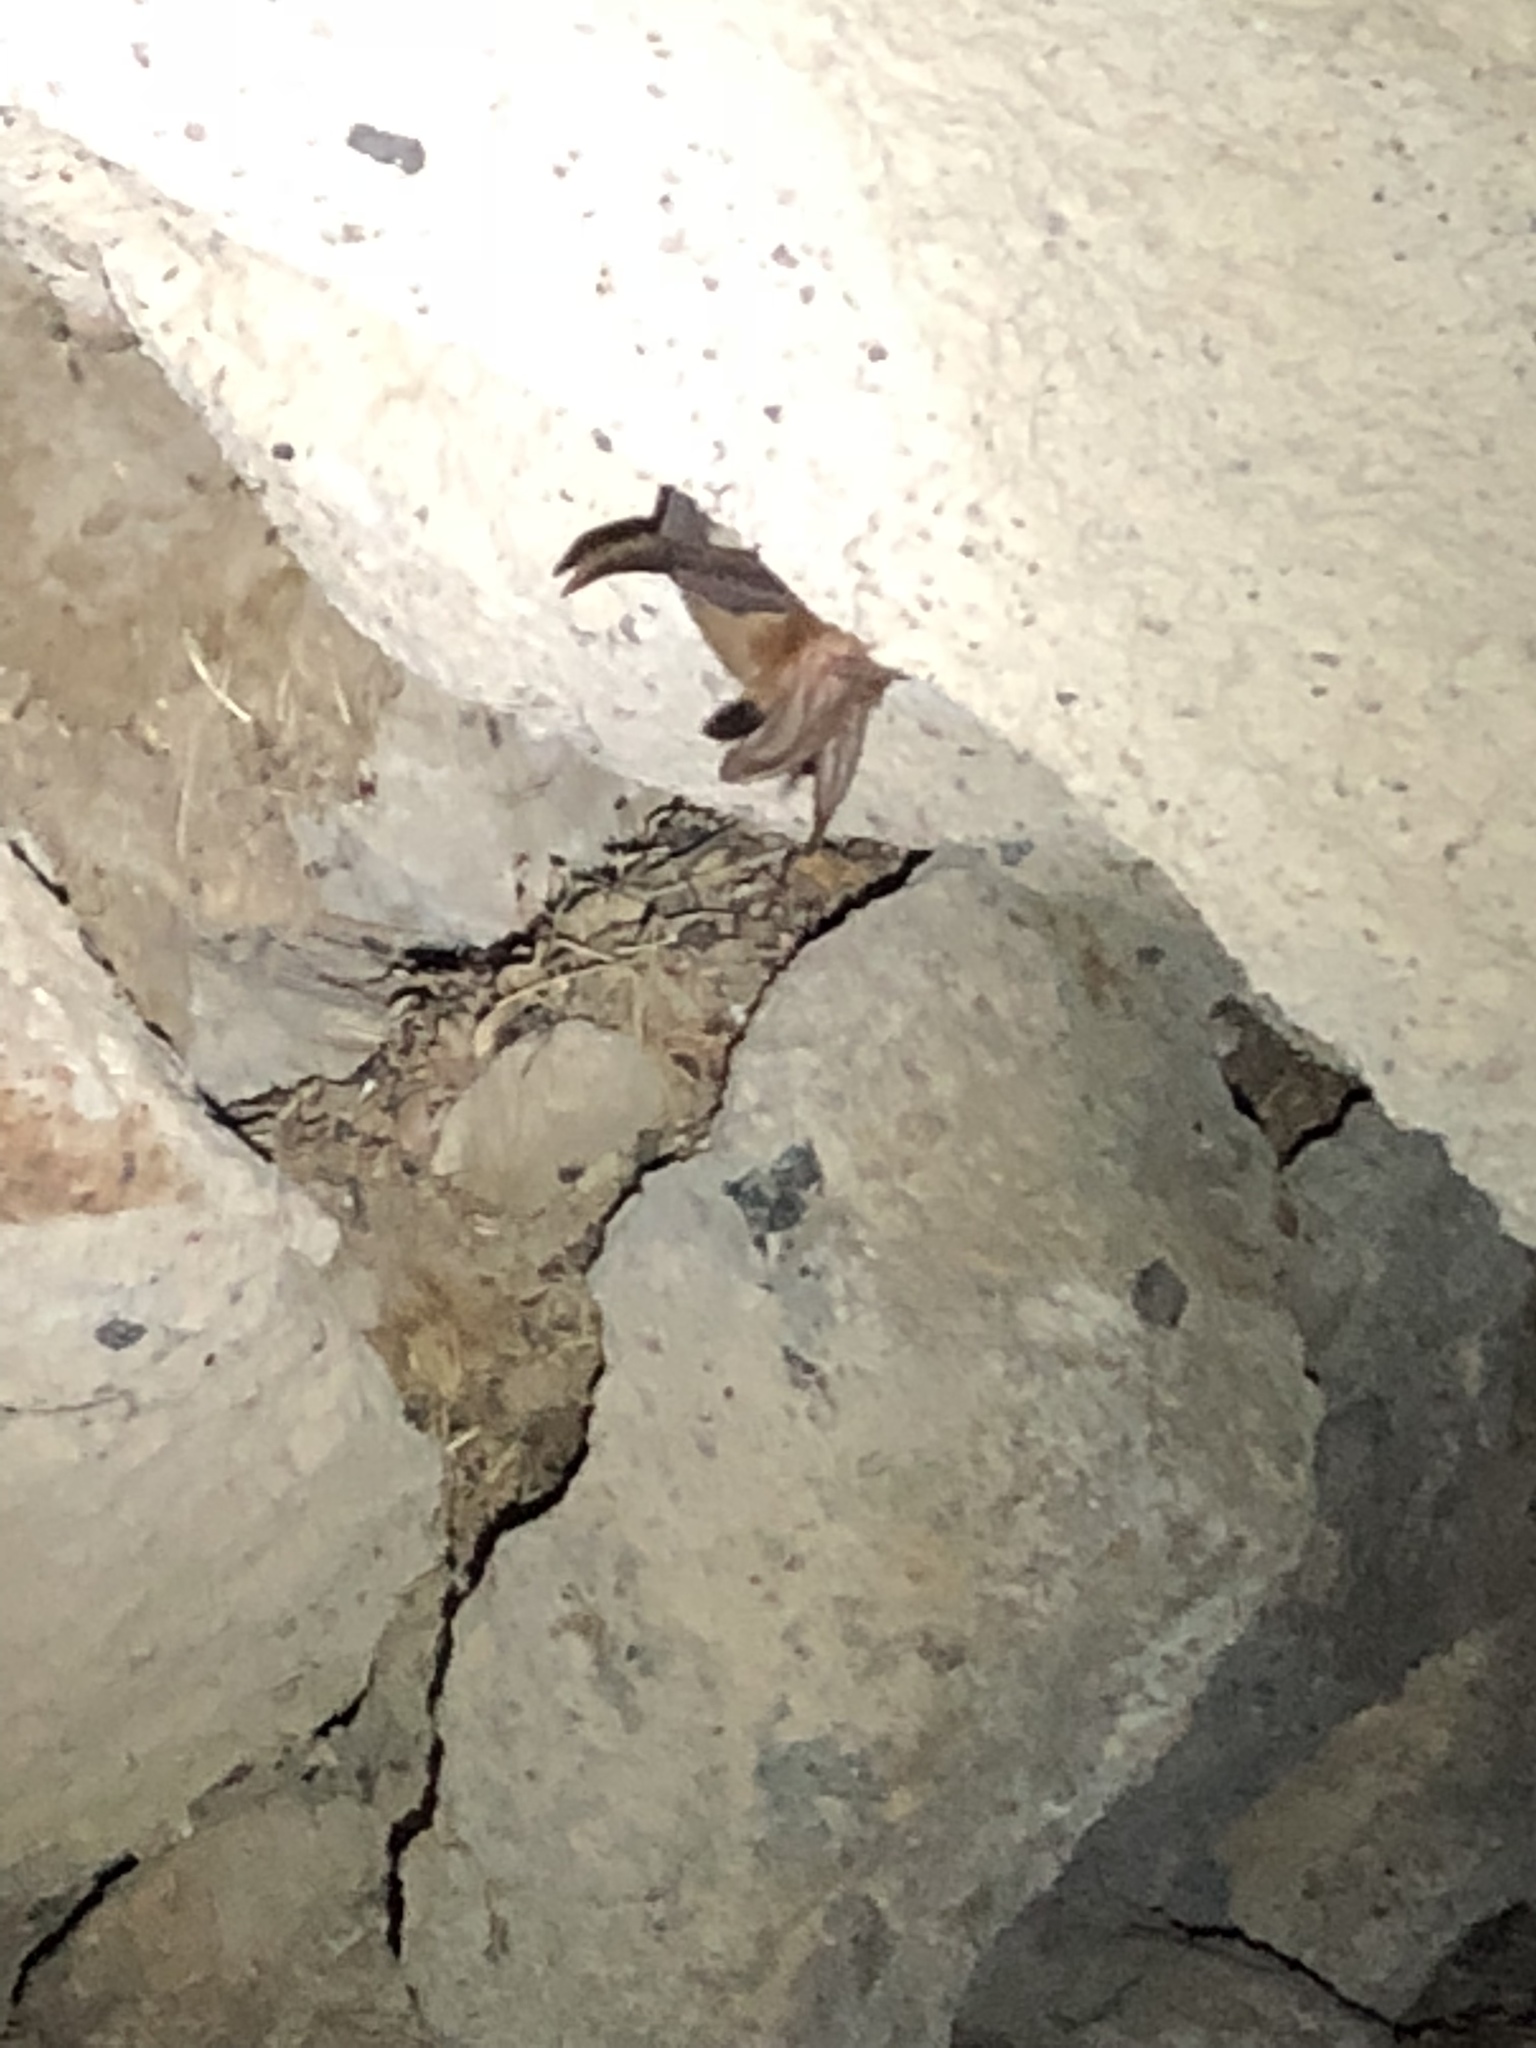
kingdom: Animalia
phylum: Chordata
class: Mammalia
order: Chiroptera
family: Vespertilionidae
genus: Corynorhinus
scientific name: Corynorhinus townsendii
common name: Townsend's big-eared bat
